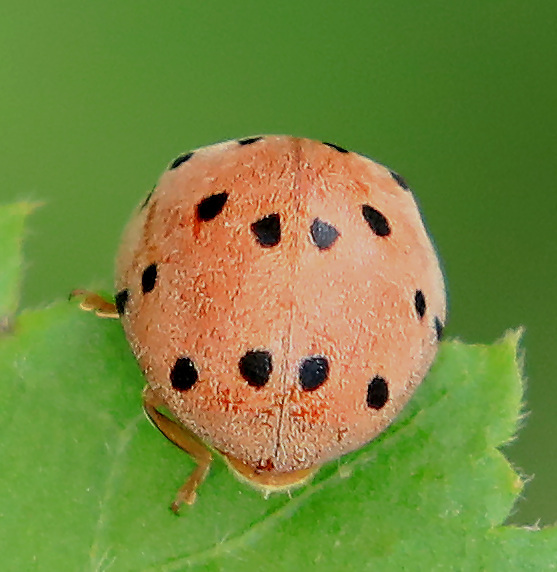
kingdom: Animalia
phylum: Arthropoda
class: Insecta
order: Coleoptera
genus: Solanophila
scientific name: Solanophila
